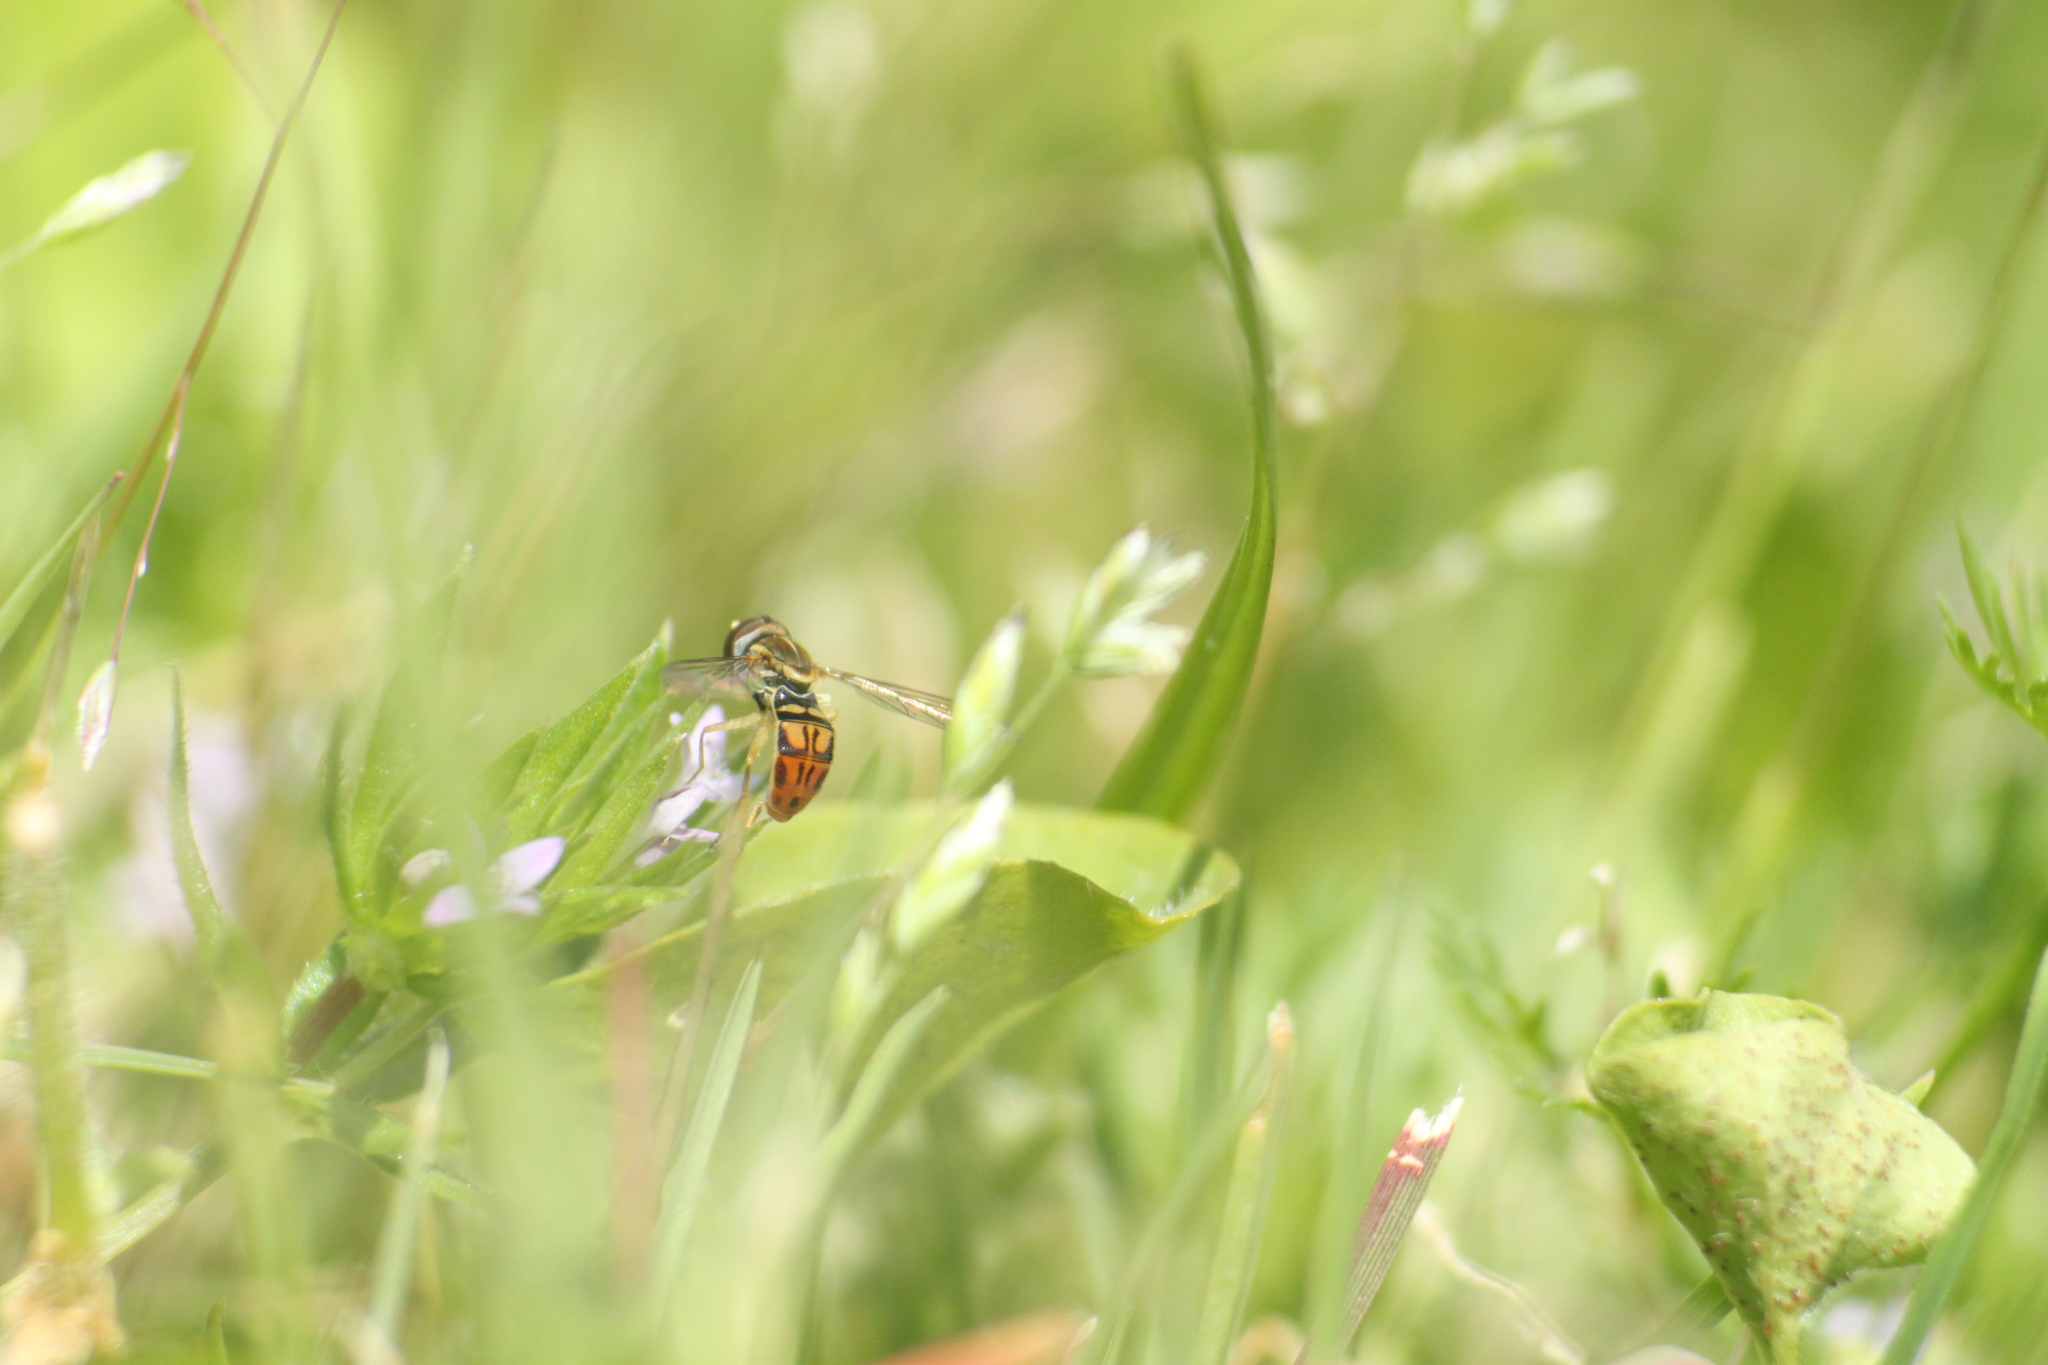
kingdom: Animalia
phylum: Arthropoda
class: Insecta
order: Diptera
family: Syrphidae
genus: Toxomerus
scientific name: Toxomerus marginatus
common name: Syrphid fly
